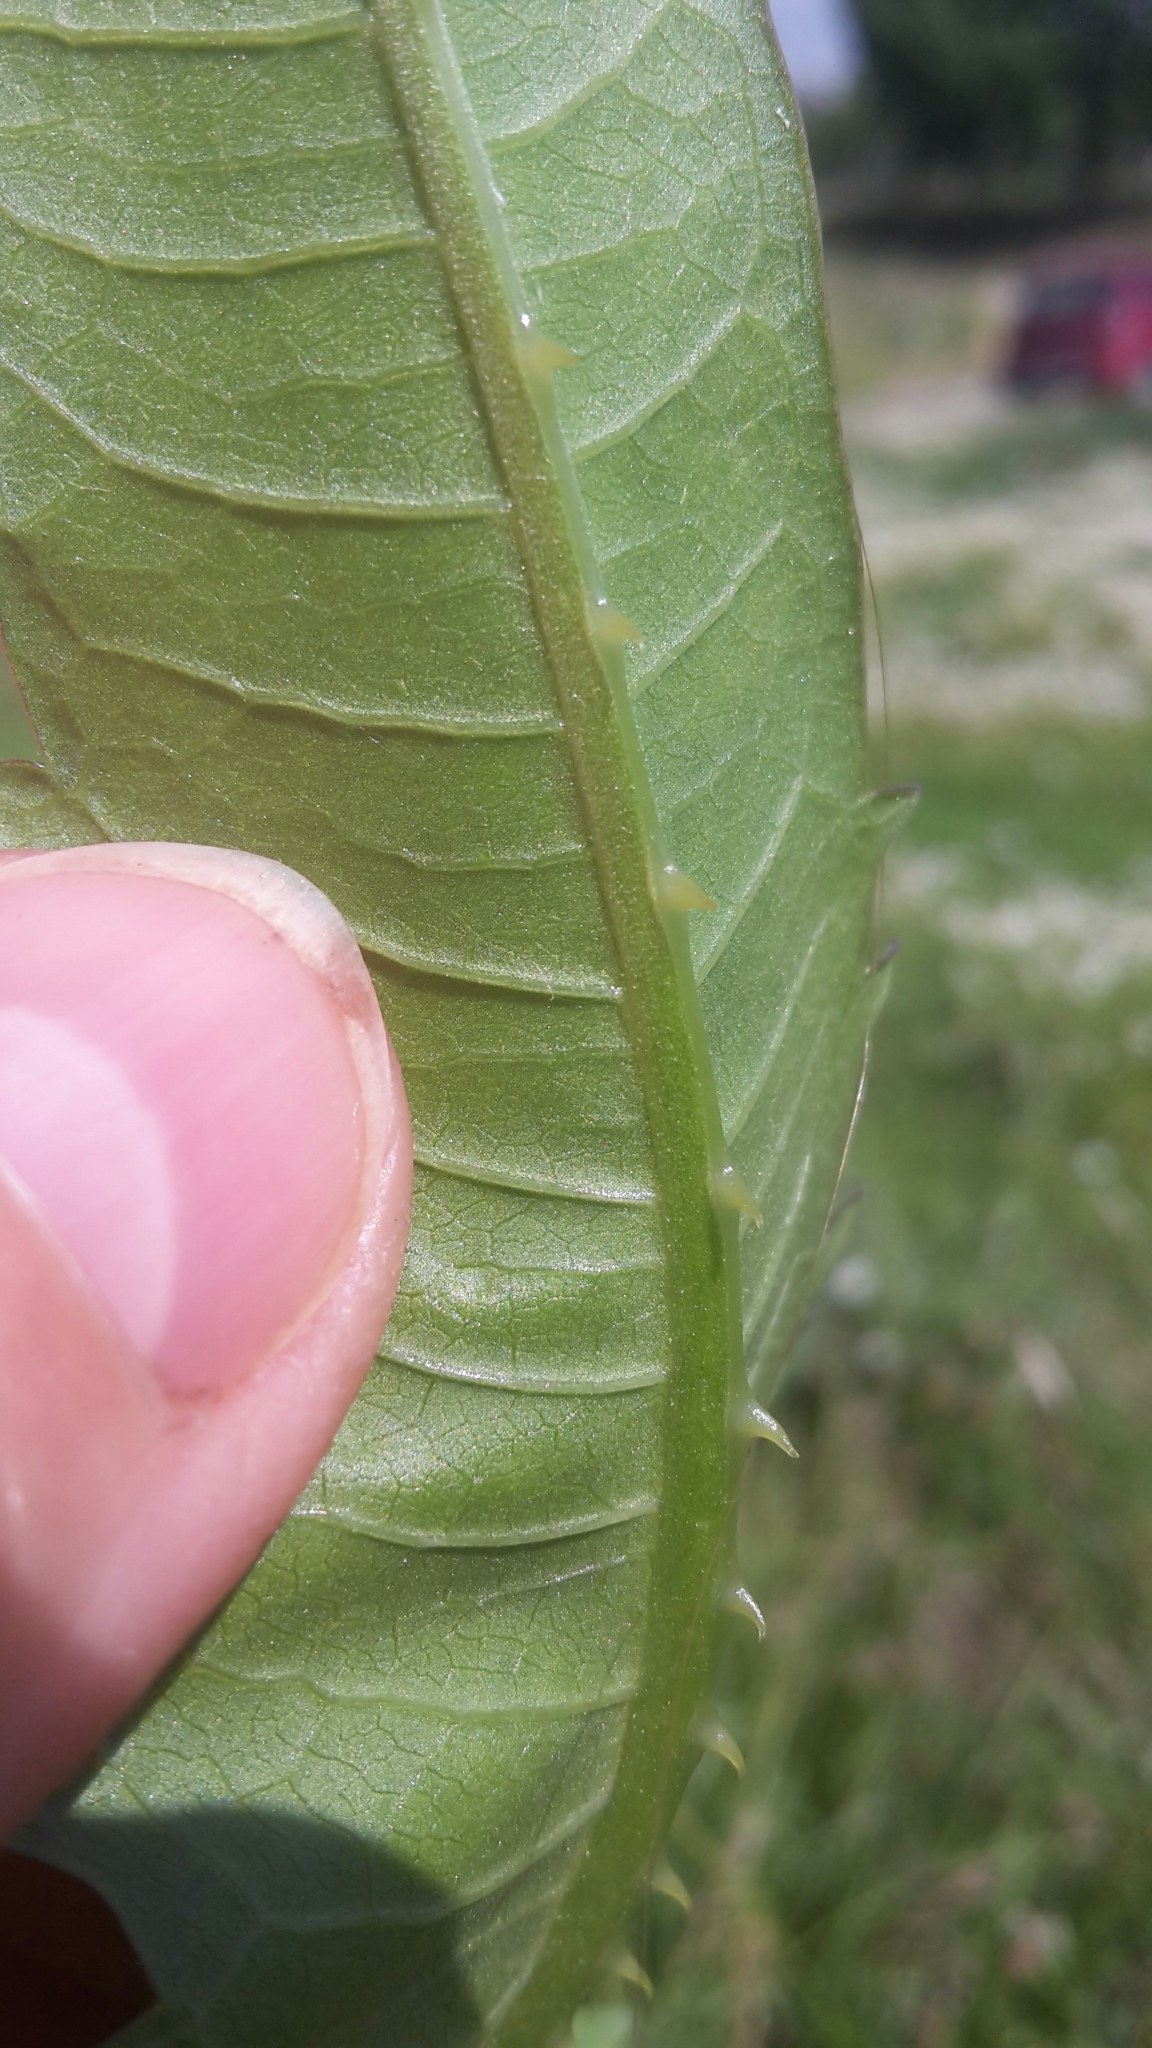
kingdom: Plantae
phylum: Tracheophyta
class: Magnoliopsida
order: Dipsacales
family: Caprifoliaceae
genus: Dipsacus
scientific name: Dipsacus fullonum
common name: Teasel
